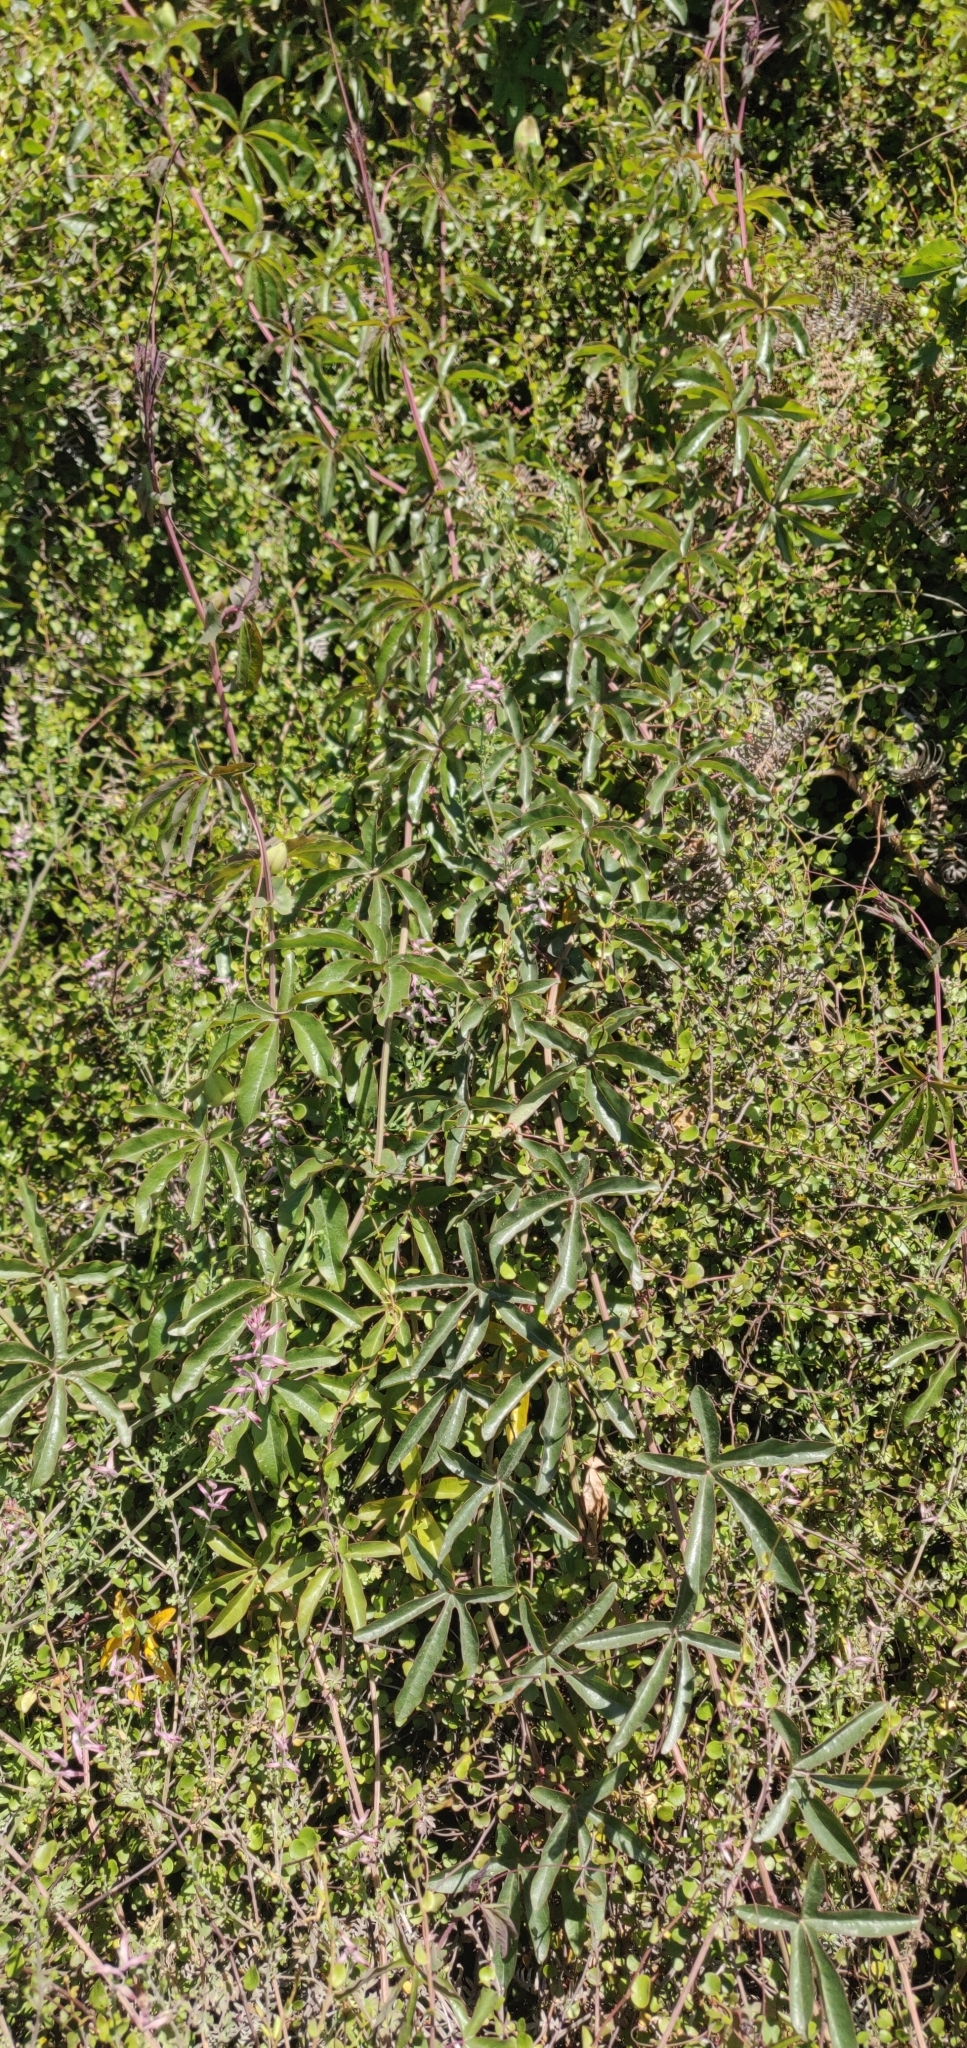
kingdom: Plantae
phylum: Tracheophyta
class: Magnoliopsida
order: Malpighiales
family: Passifloraceae
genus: Passiflora
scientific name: Passiflora caerulea
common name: Blue passionflower
